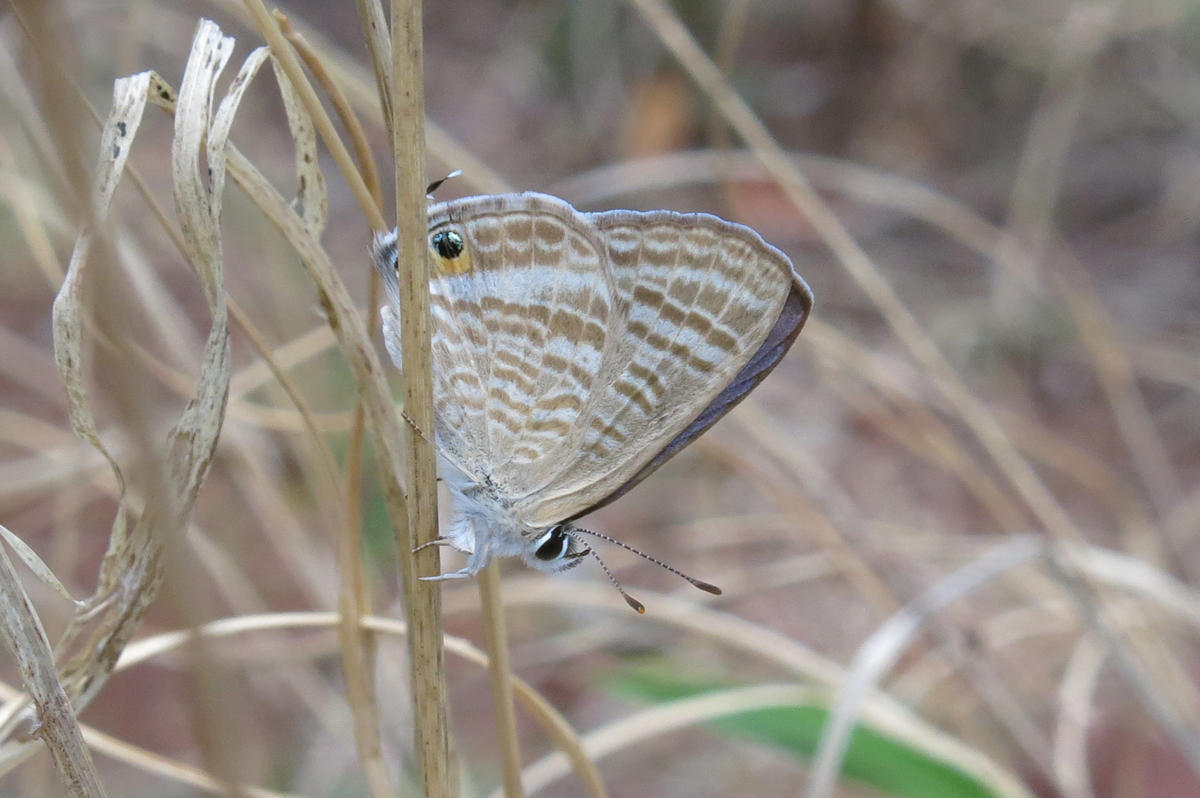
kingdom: Animalia
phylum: Arthropoda
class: Insecta
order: Lepidoptera
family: Lycaenidae
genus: Lampides
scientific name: Lampides boeticus
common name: Long-tailed blue
